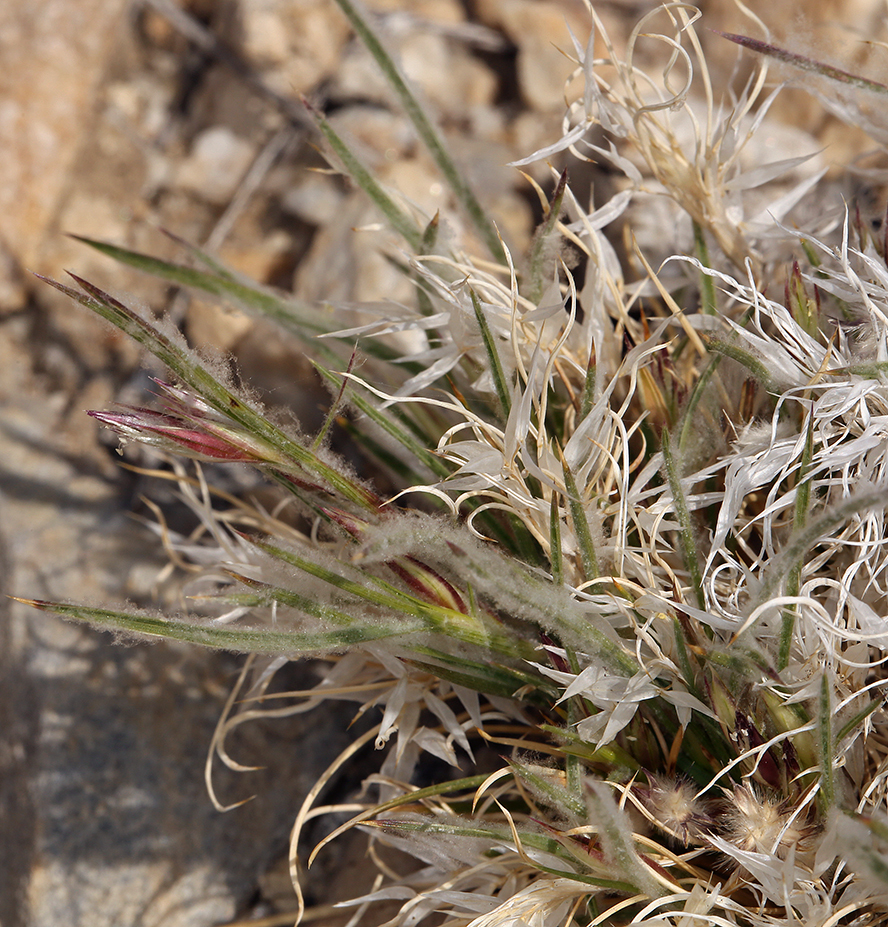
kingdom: Plantae
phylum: Tracheophyta
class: Liliopsida
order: Poales
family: Poaceae
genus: Dasyochloa
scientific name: Dasyochloa pulchella
